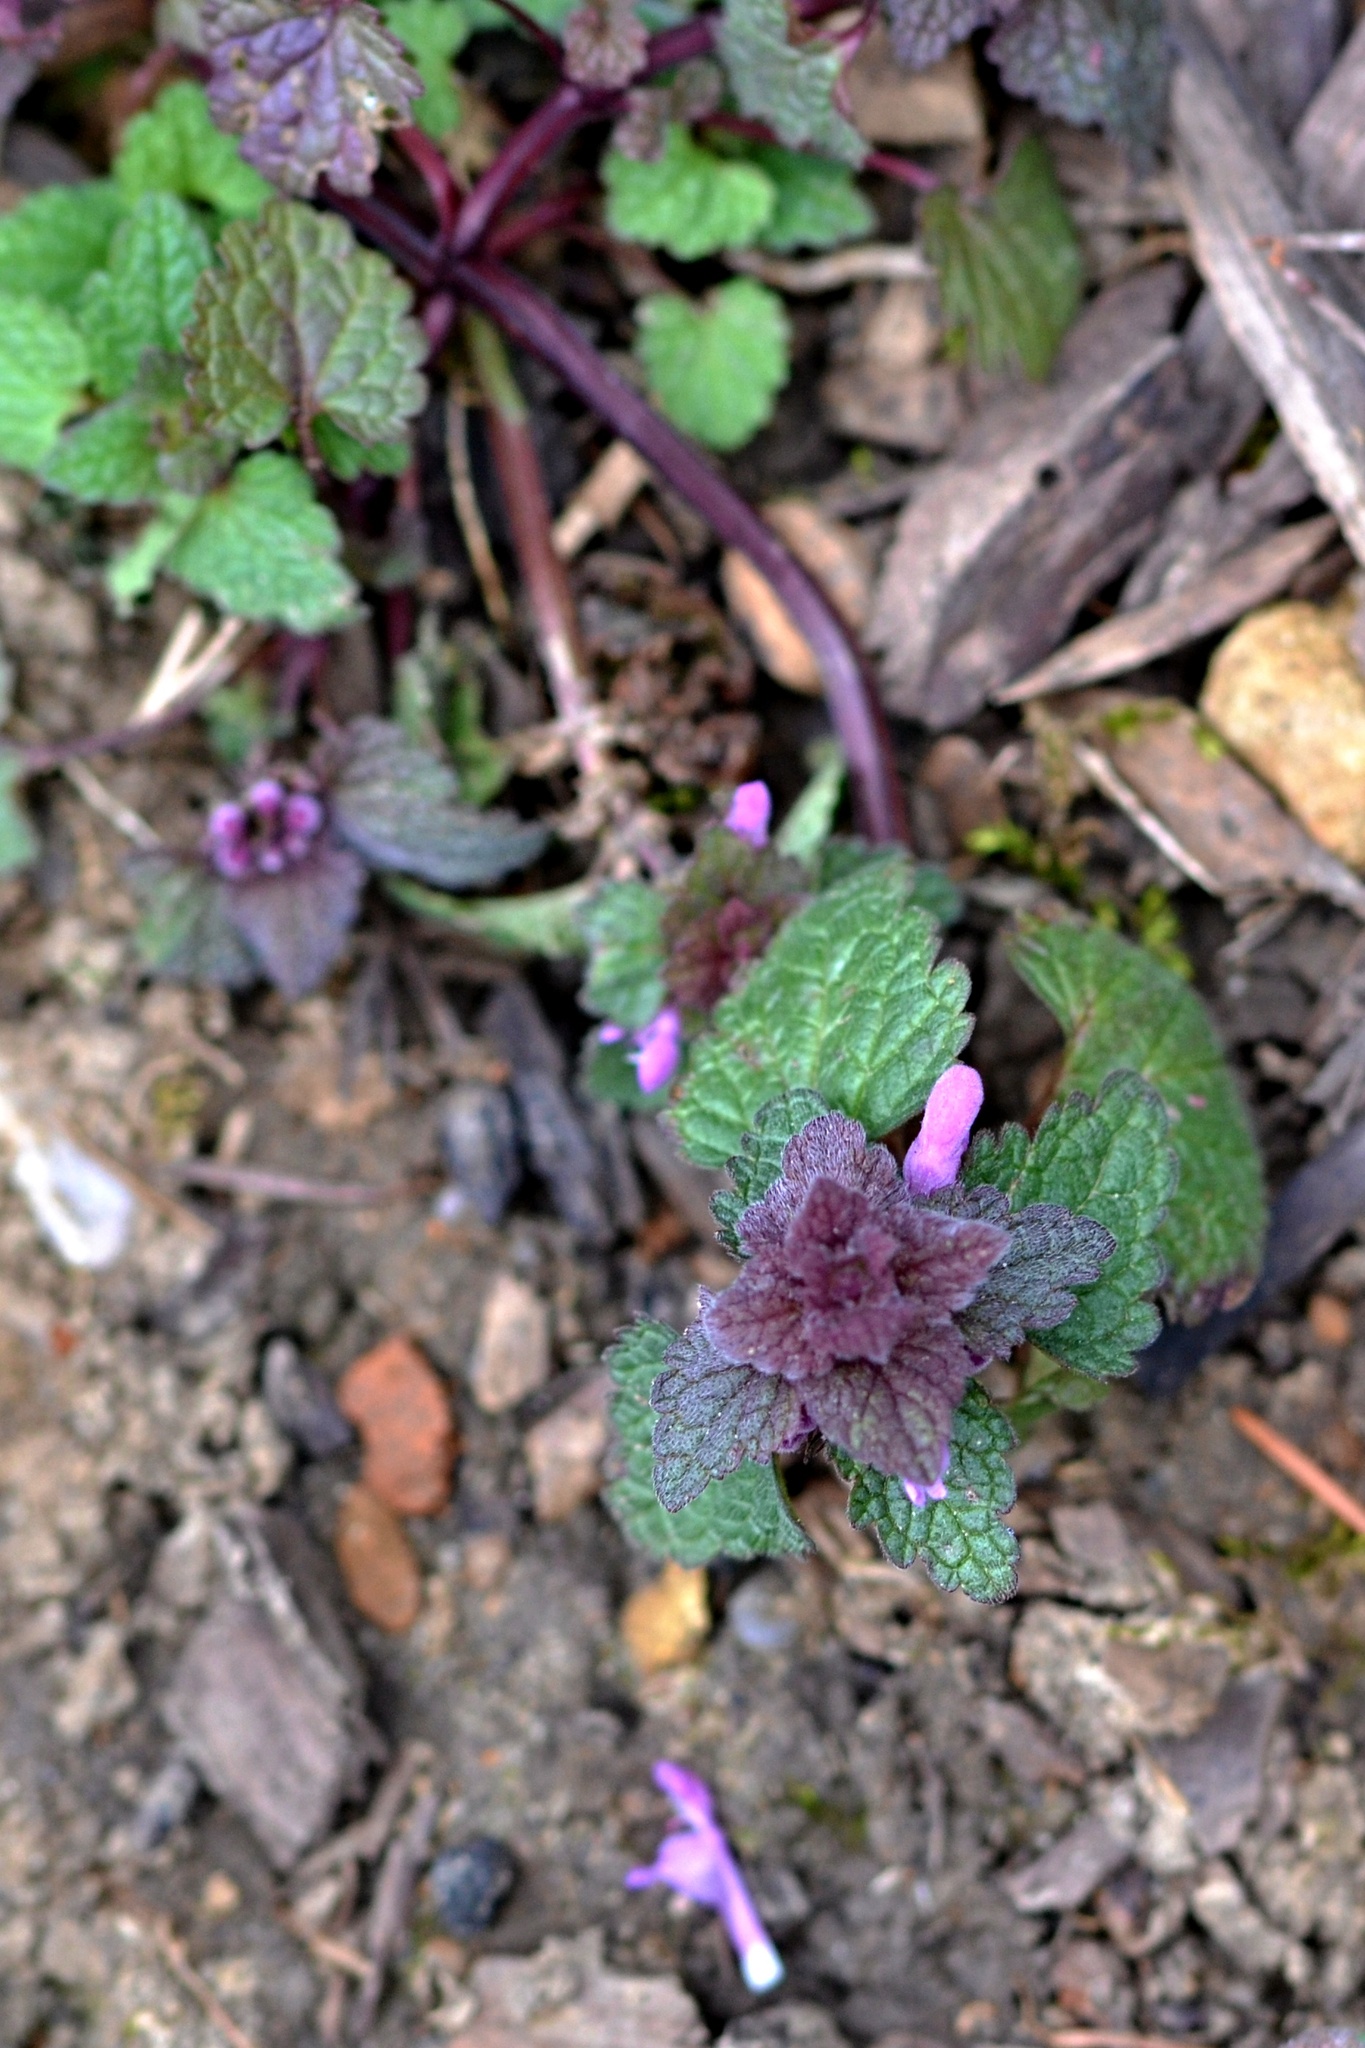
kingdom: Plantae
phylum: Tracheophyta
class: Magnoliopsida
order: Lamiales
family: Lamiaceae
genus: Lamium
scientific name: Lamium purpureum
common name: Red dead-nettle
